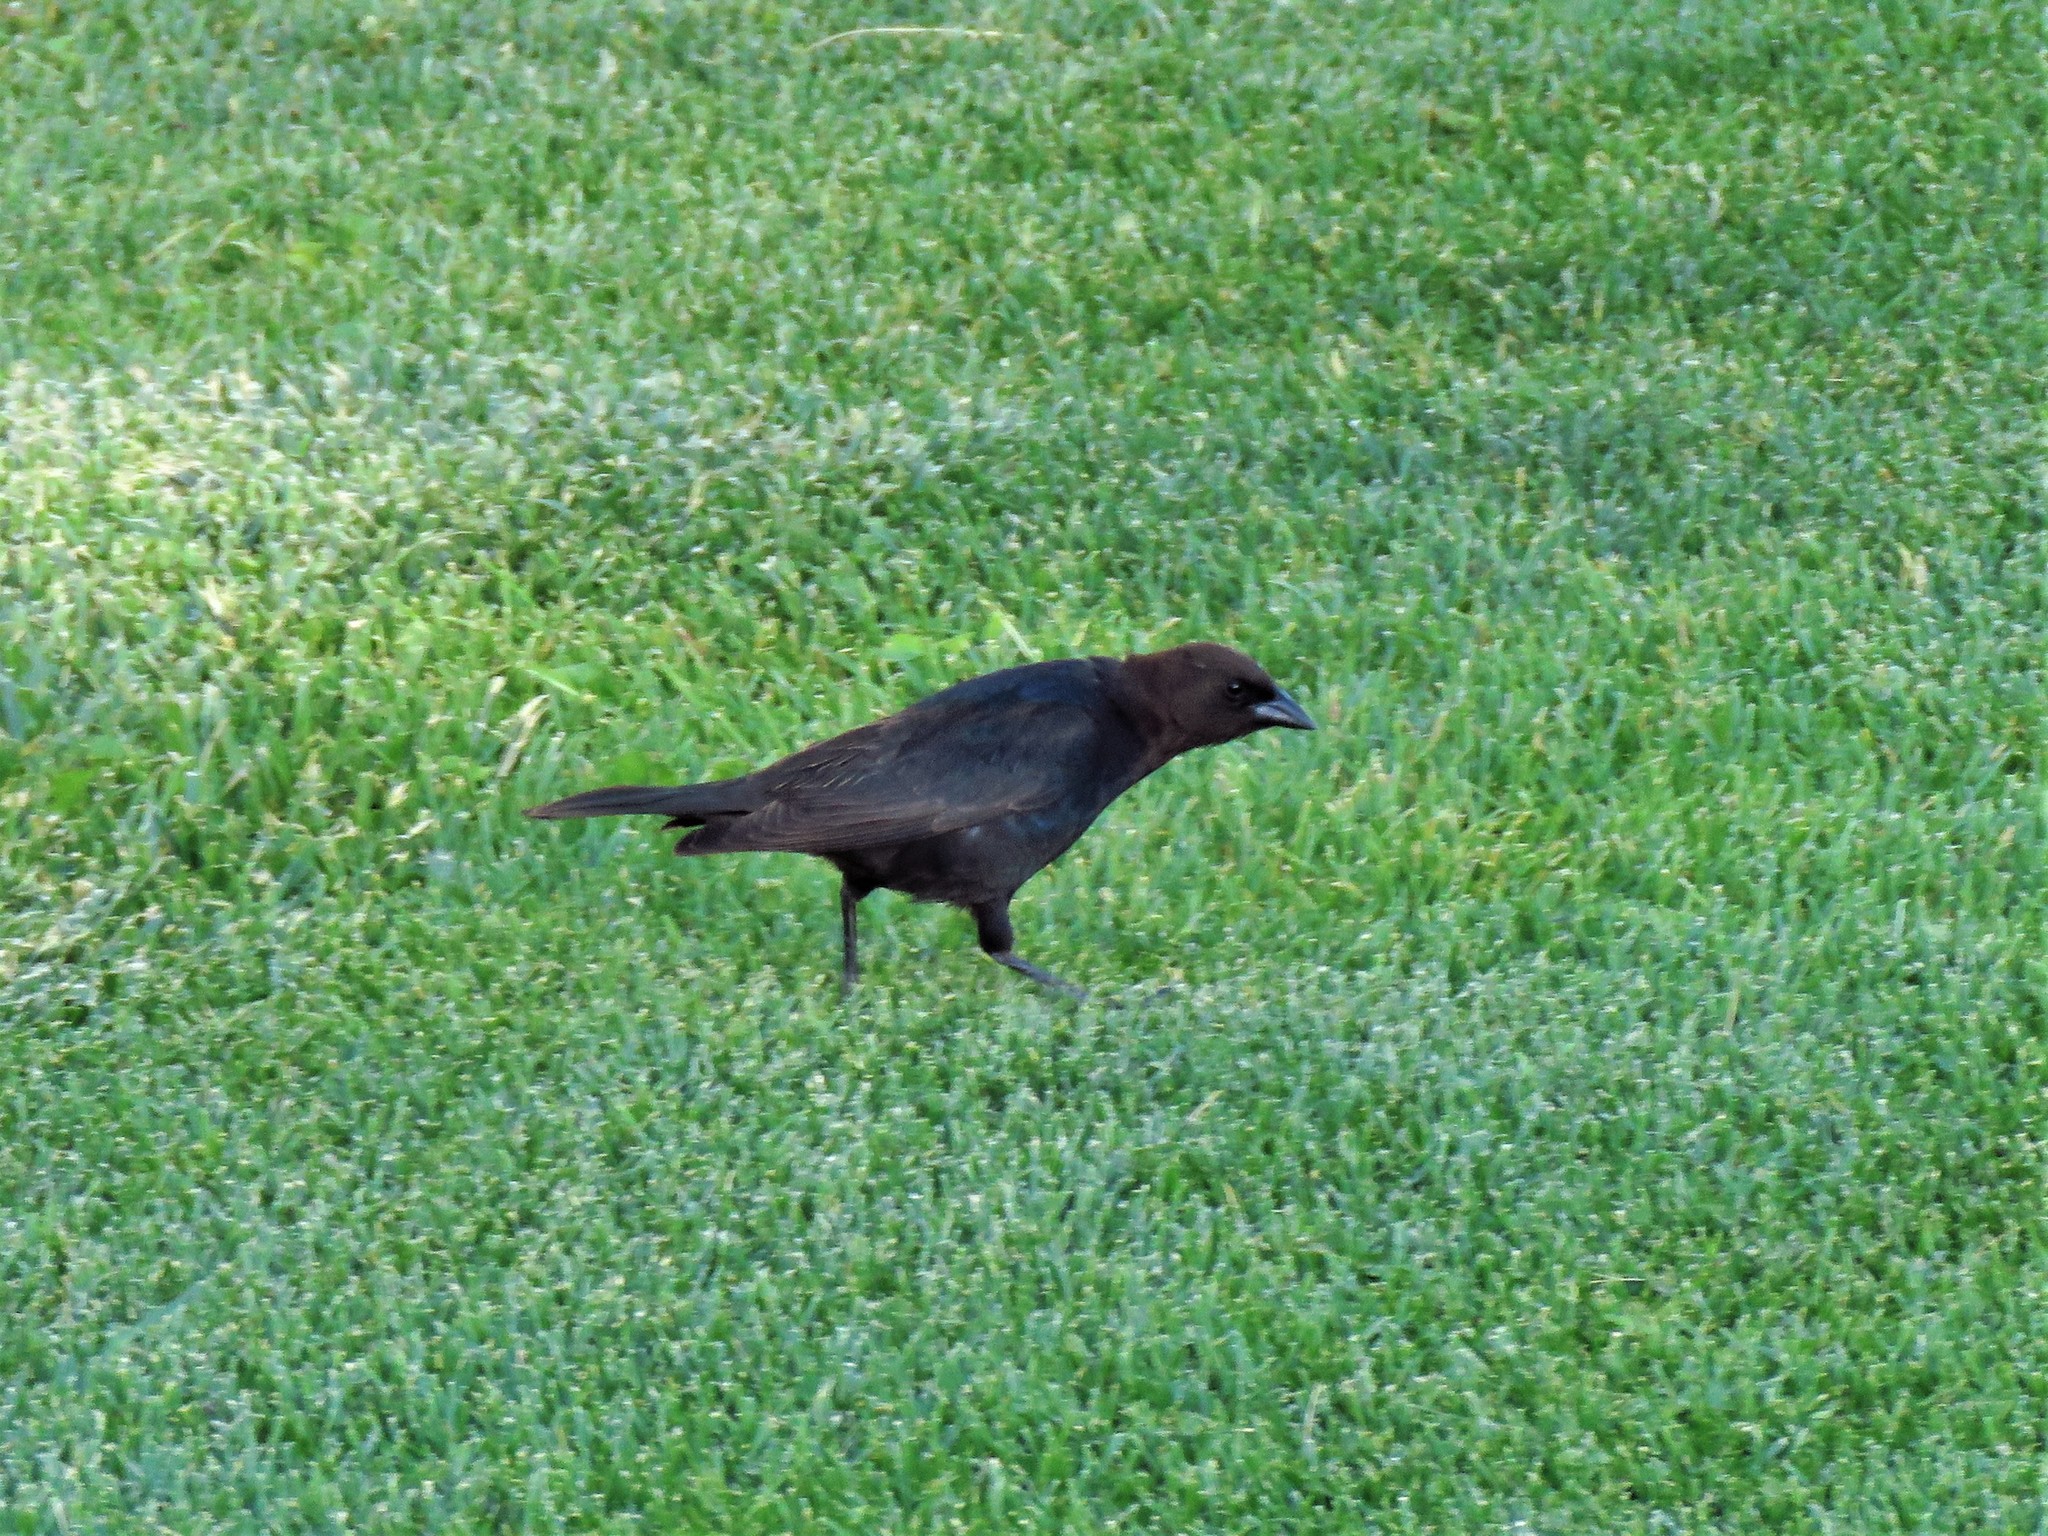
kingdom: Animalia
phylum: Chordata
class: Aves
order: Passeriformes
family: Icteridae
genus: Molothrus
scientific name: Molothrus ater
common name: Brown-headed cowbird
